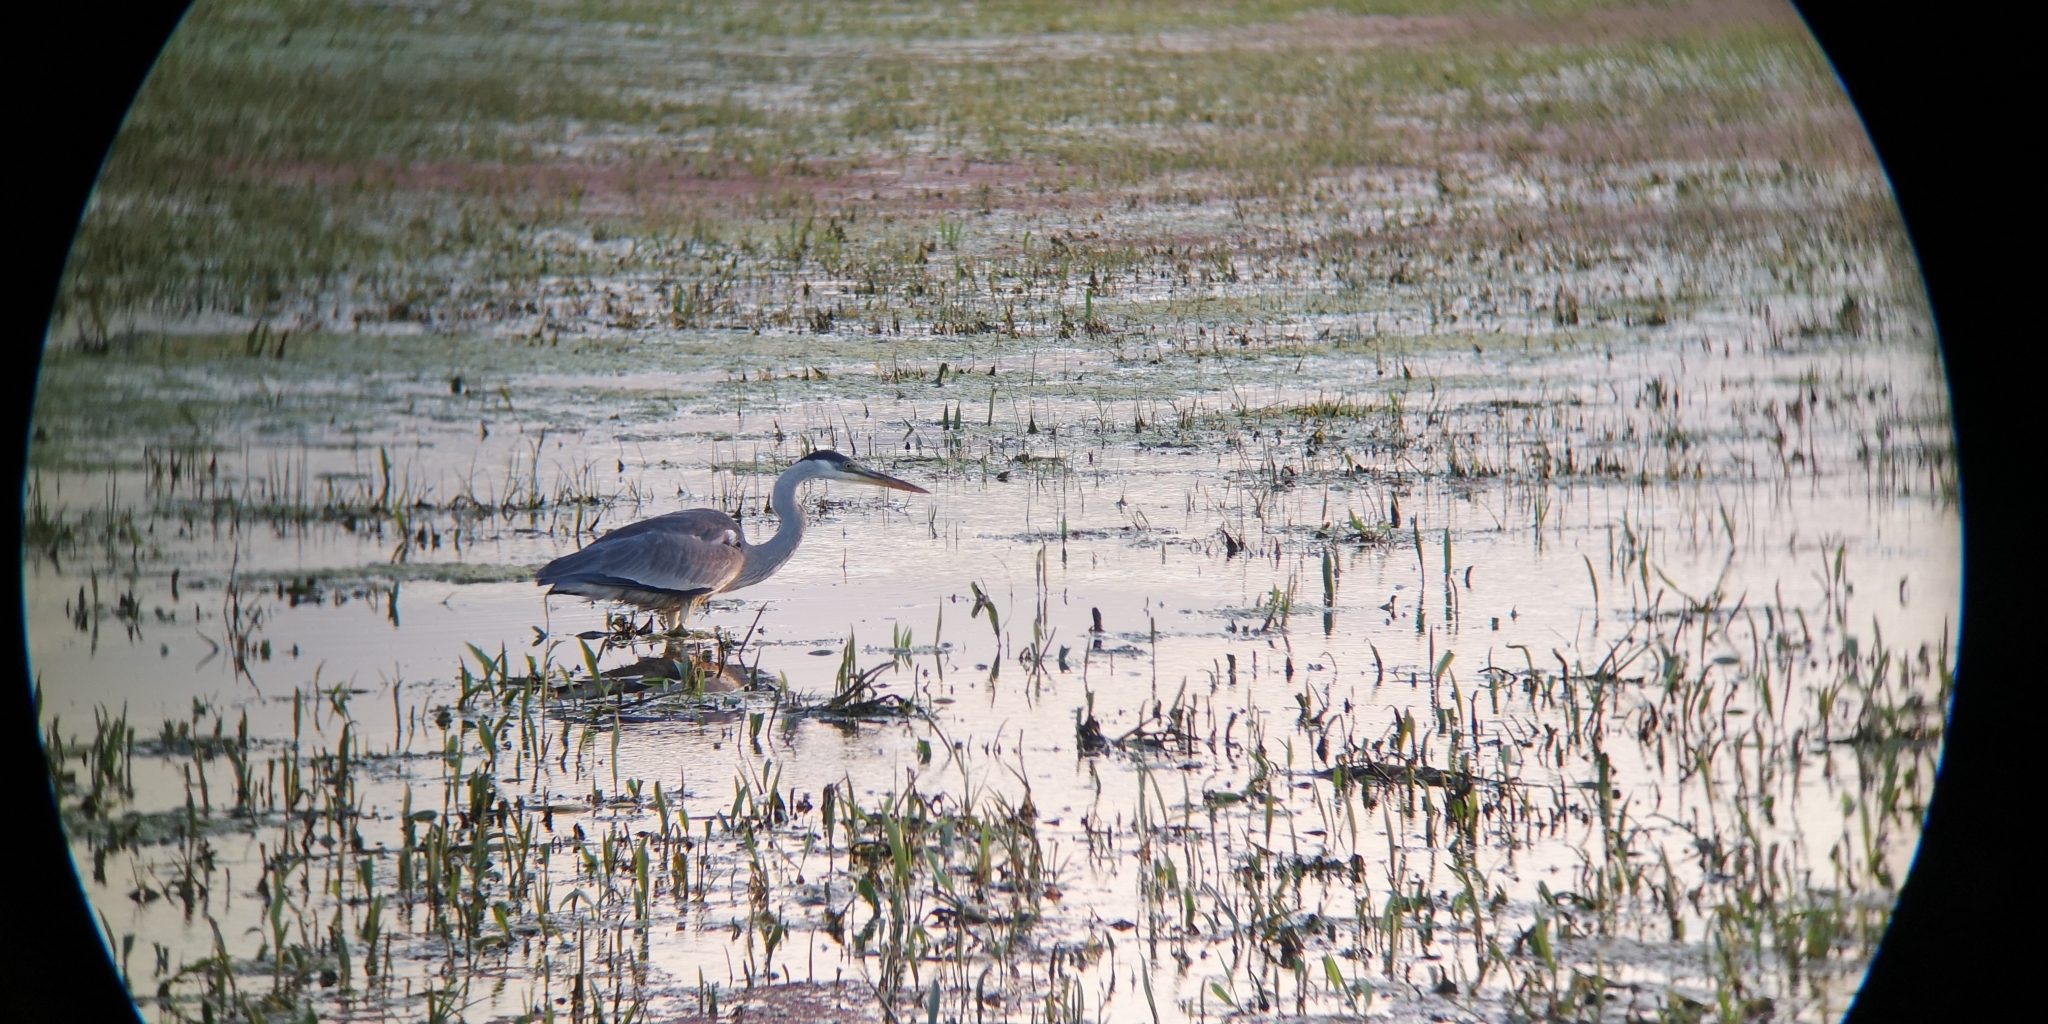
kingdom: Animalia
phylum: Chordata
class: Aves
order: Pelecaniformes
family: Ardeidae
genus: Ardea
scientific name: Ardea cocoi
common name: Cocoi heron
